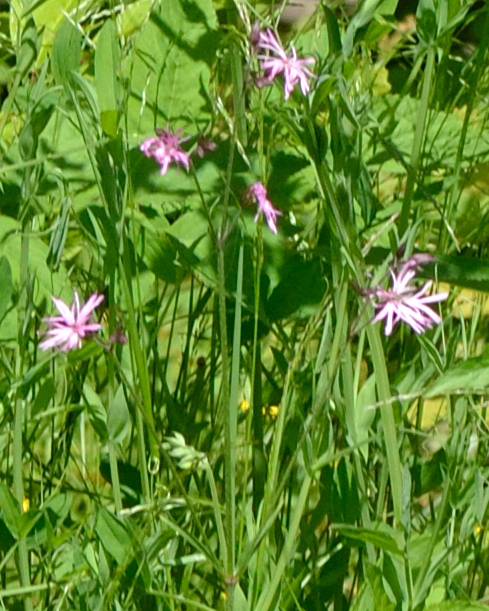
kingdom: Plantae
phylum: Tracheophyta
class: Magnoliopsida
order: Caryophyllales
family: Caryophyllaceae
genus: Silene
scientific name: Silene flos-cuculi
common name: Ragged-robin
